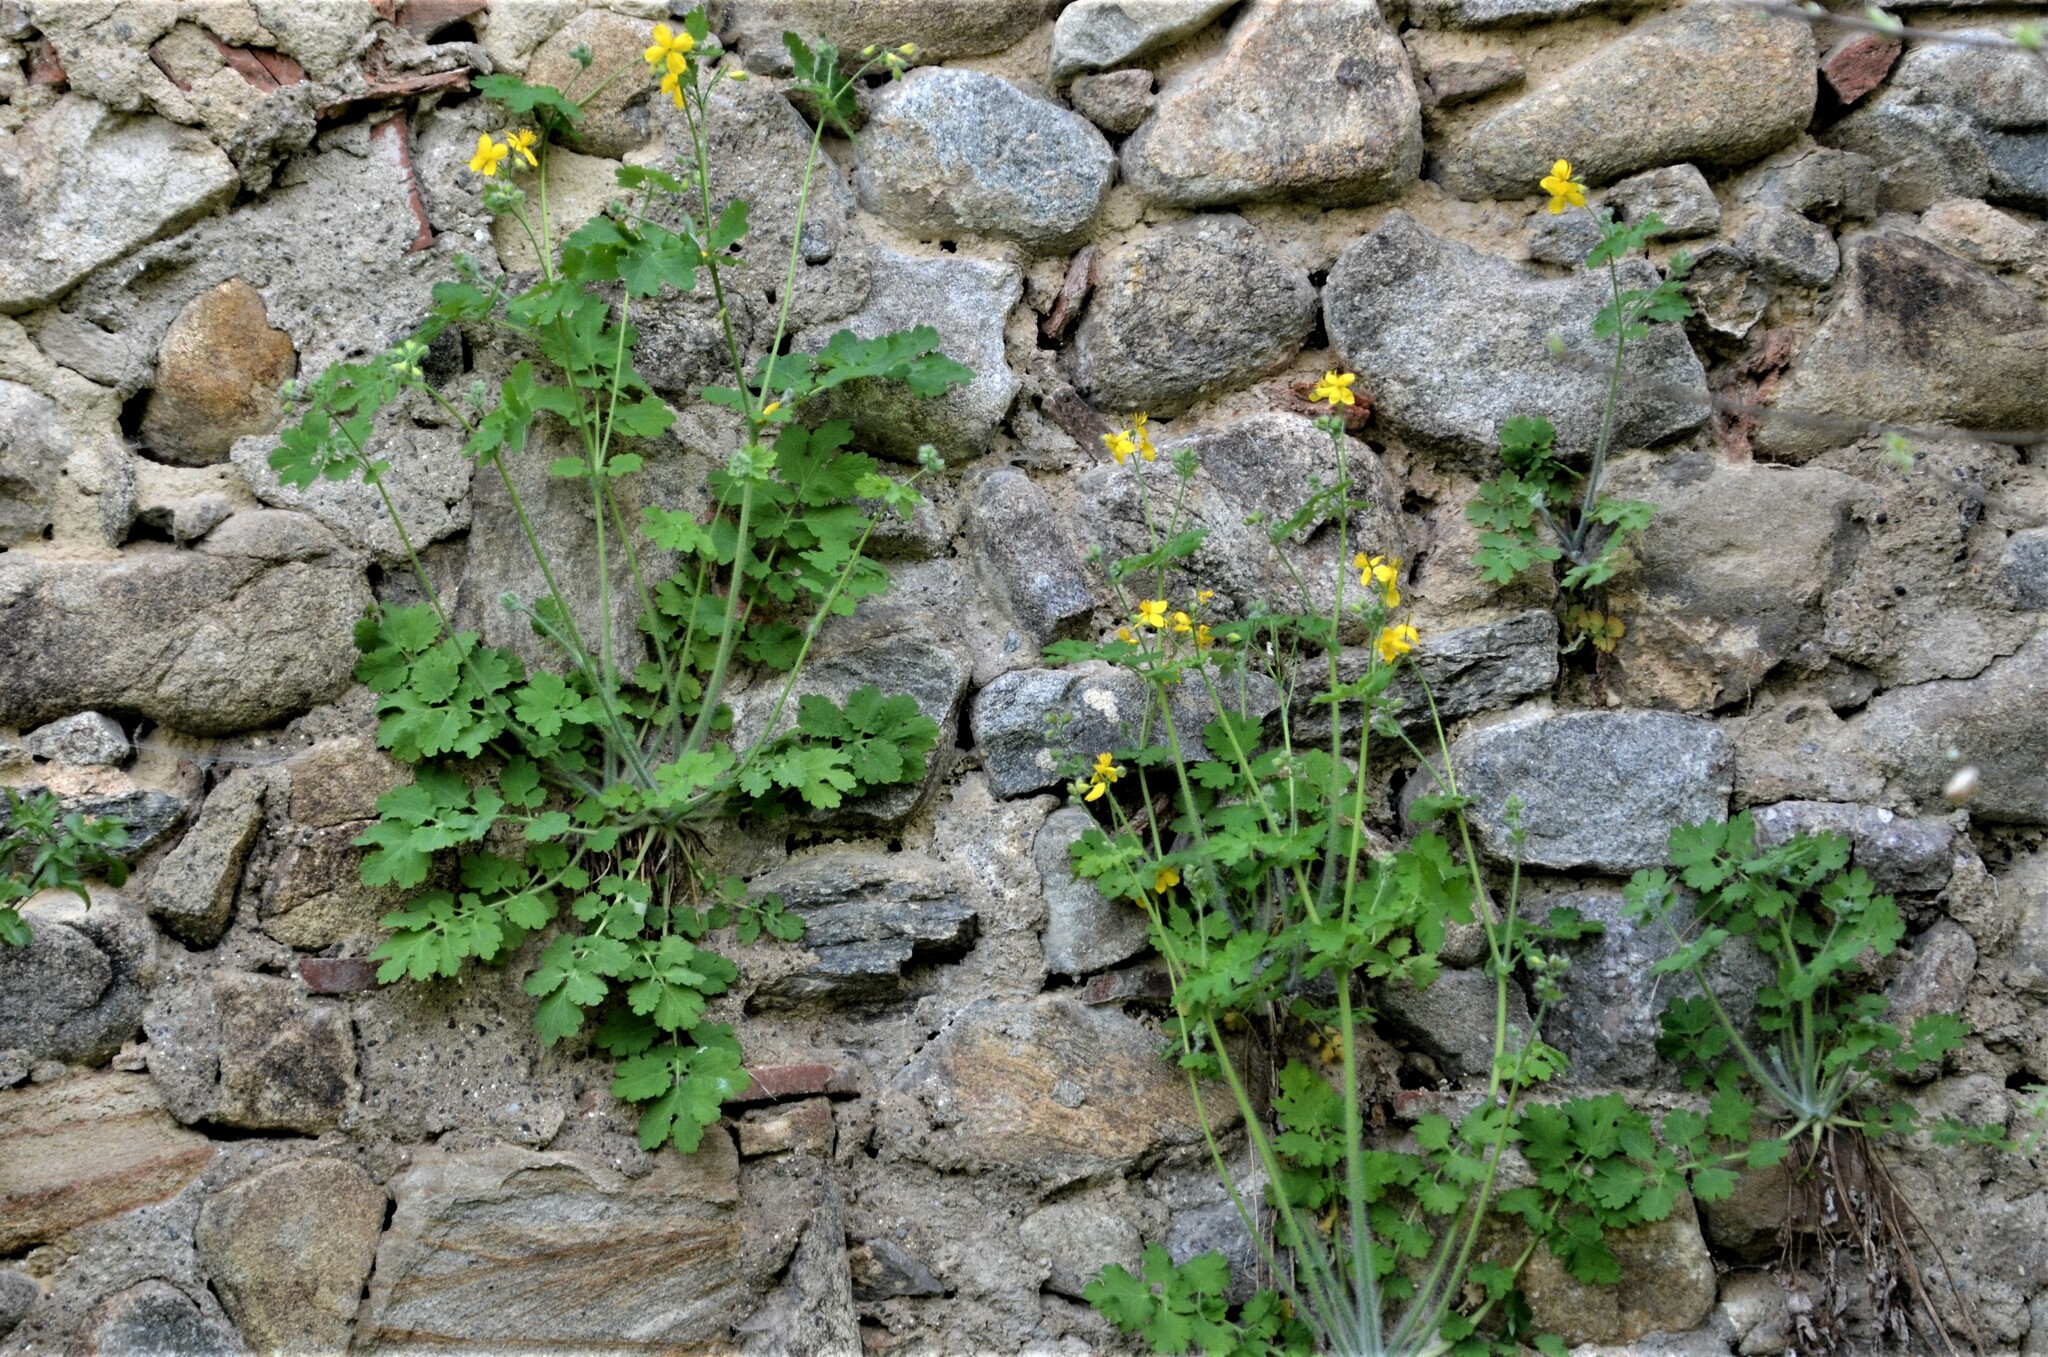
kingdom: Plantae
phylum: Tracheophyta
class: Magnoliopsida
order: Ranunculales
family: Papaveraceae
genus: Chelidonium
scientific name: Chelidonium majus
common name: Greater celandine
